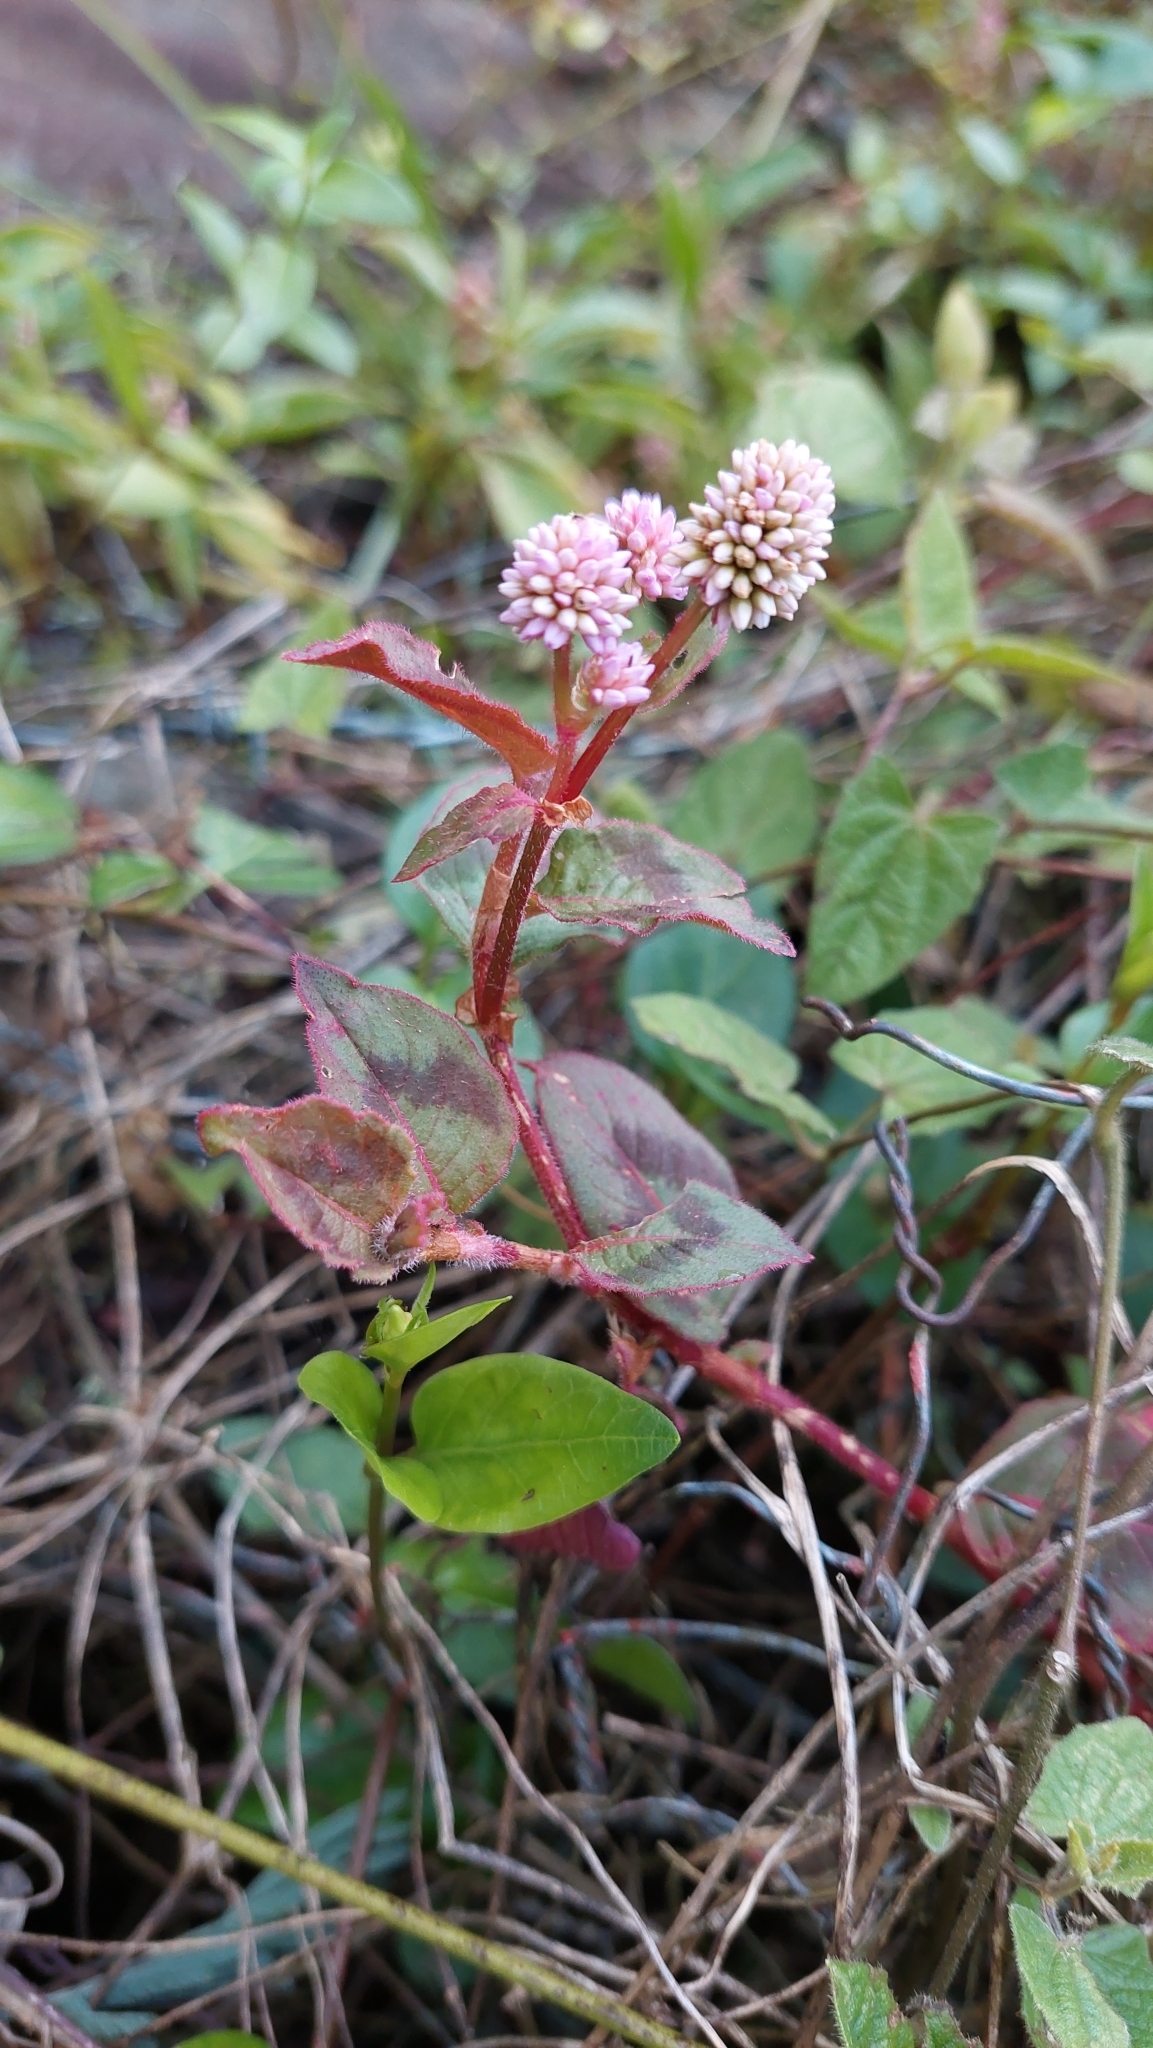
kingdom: Plantae
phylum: Tracheophyta
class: Magnoliopsida
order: Caryophyllales
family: Polygonaceae
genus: Persicaria
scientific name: Persicaria capitata
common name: Pinkhead smartweed
